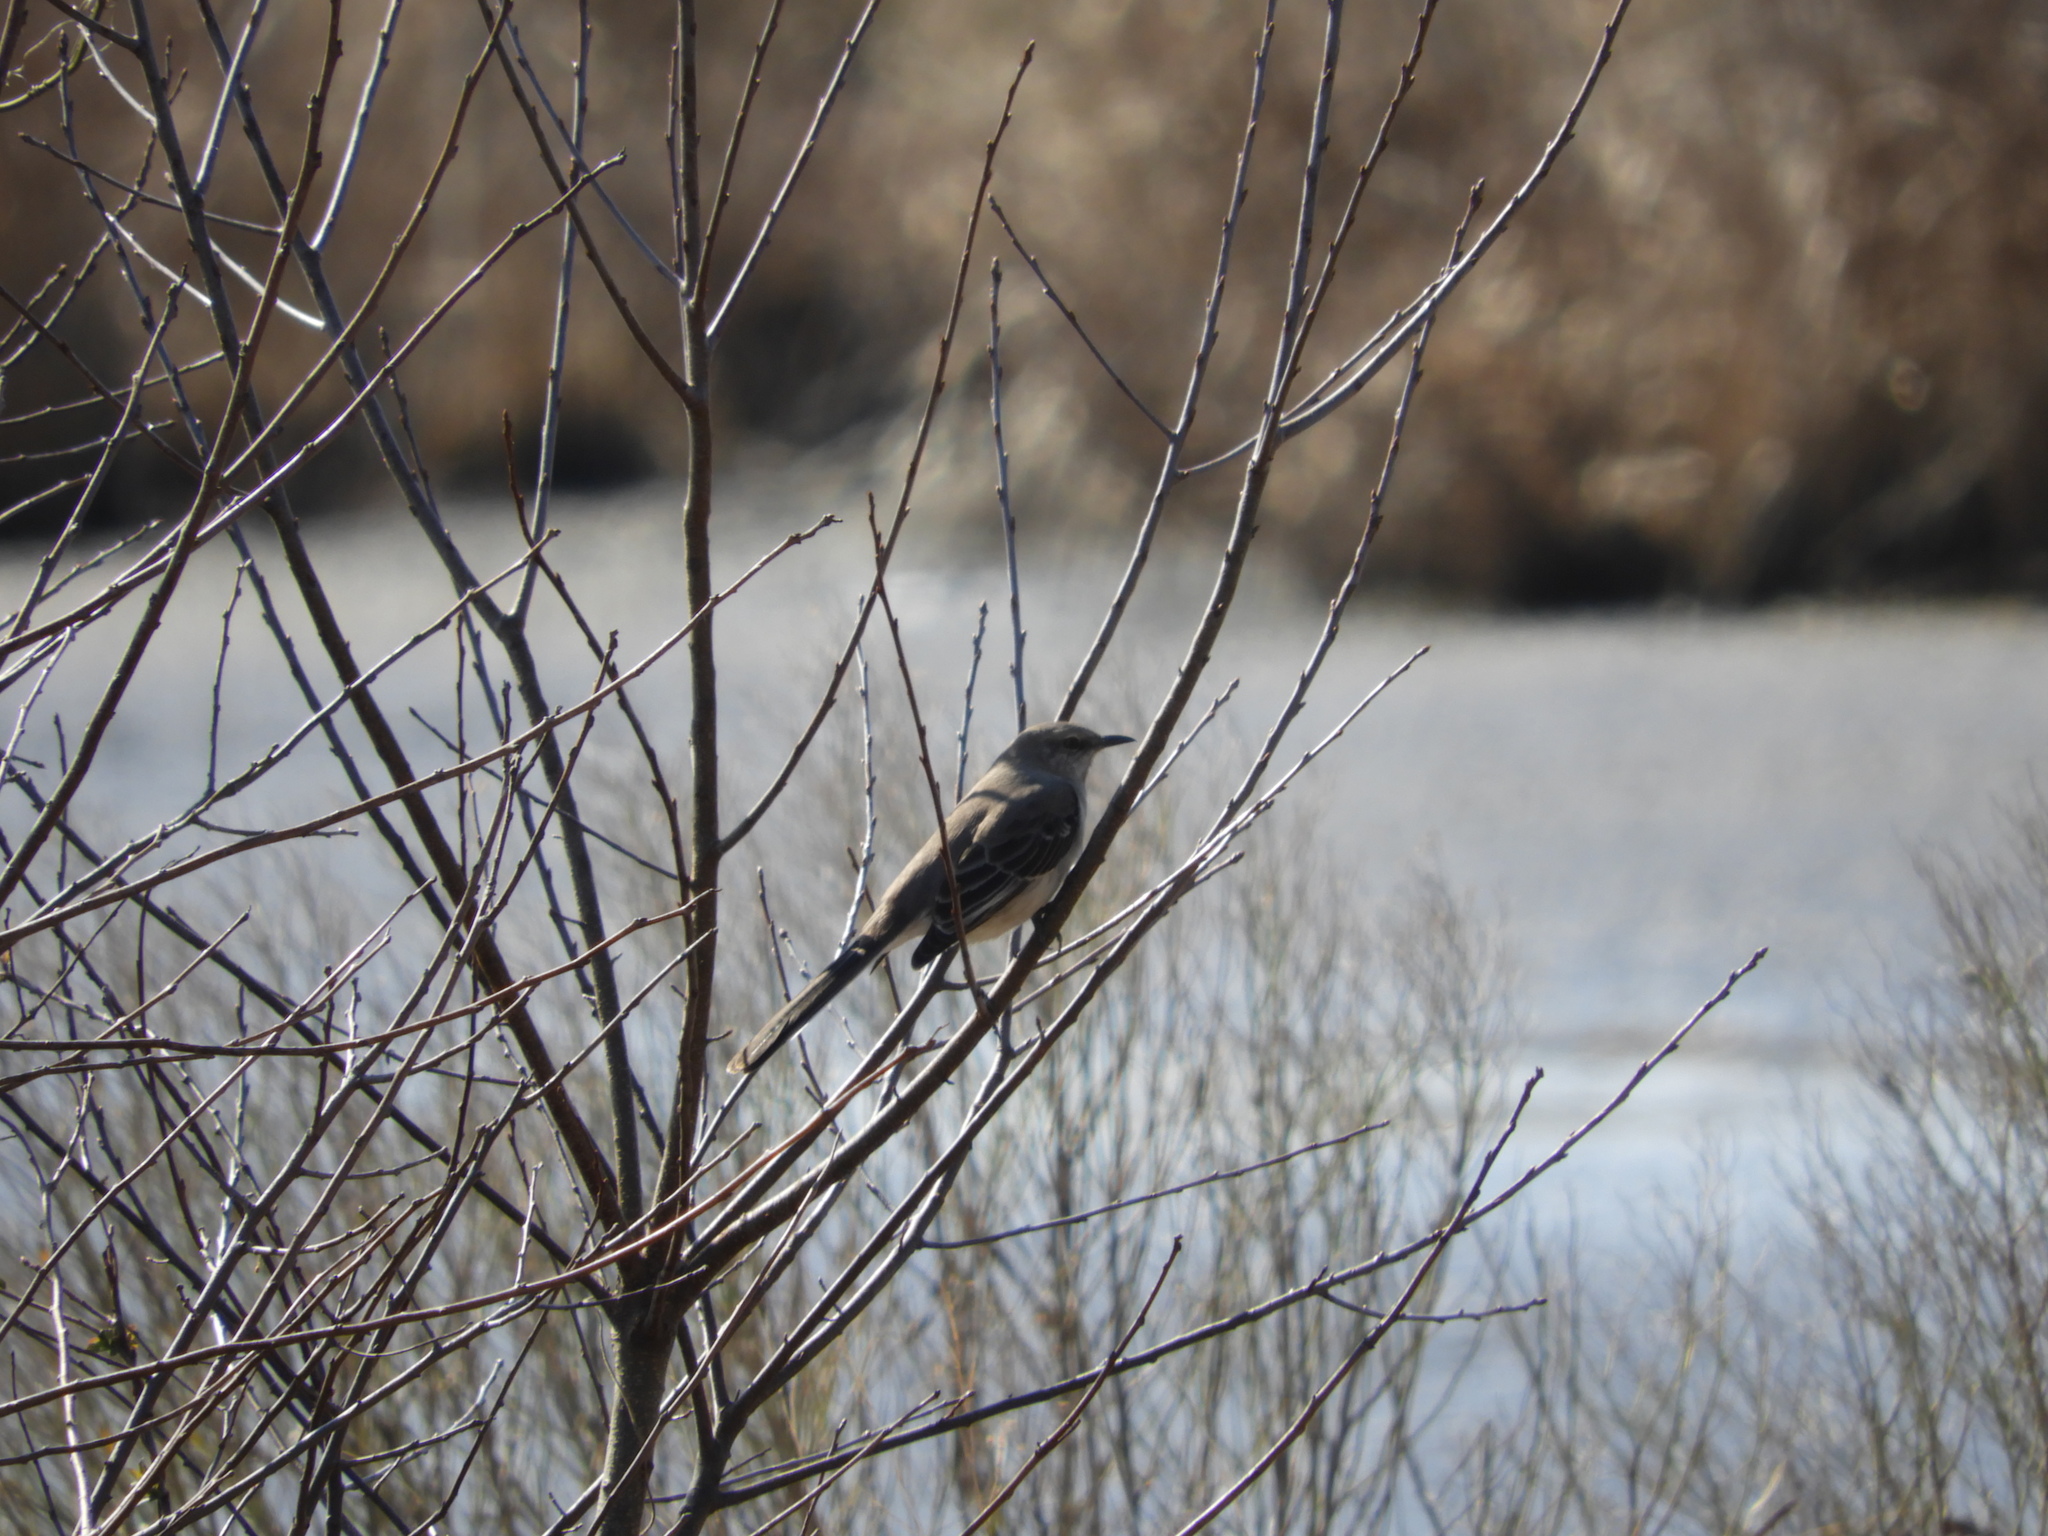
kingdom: Animalia
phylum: Chordata
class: Aves
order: Passeriformes
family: Mimidae
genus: Mimus
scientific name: Mimus polyglottos
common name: Northern mockingbird
